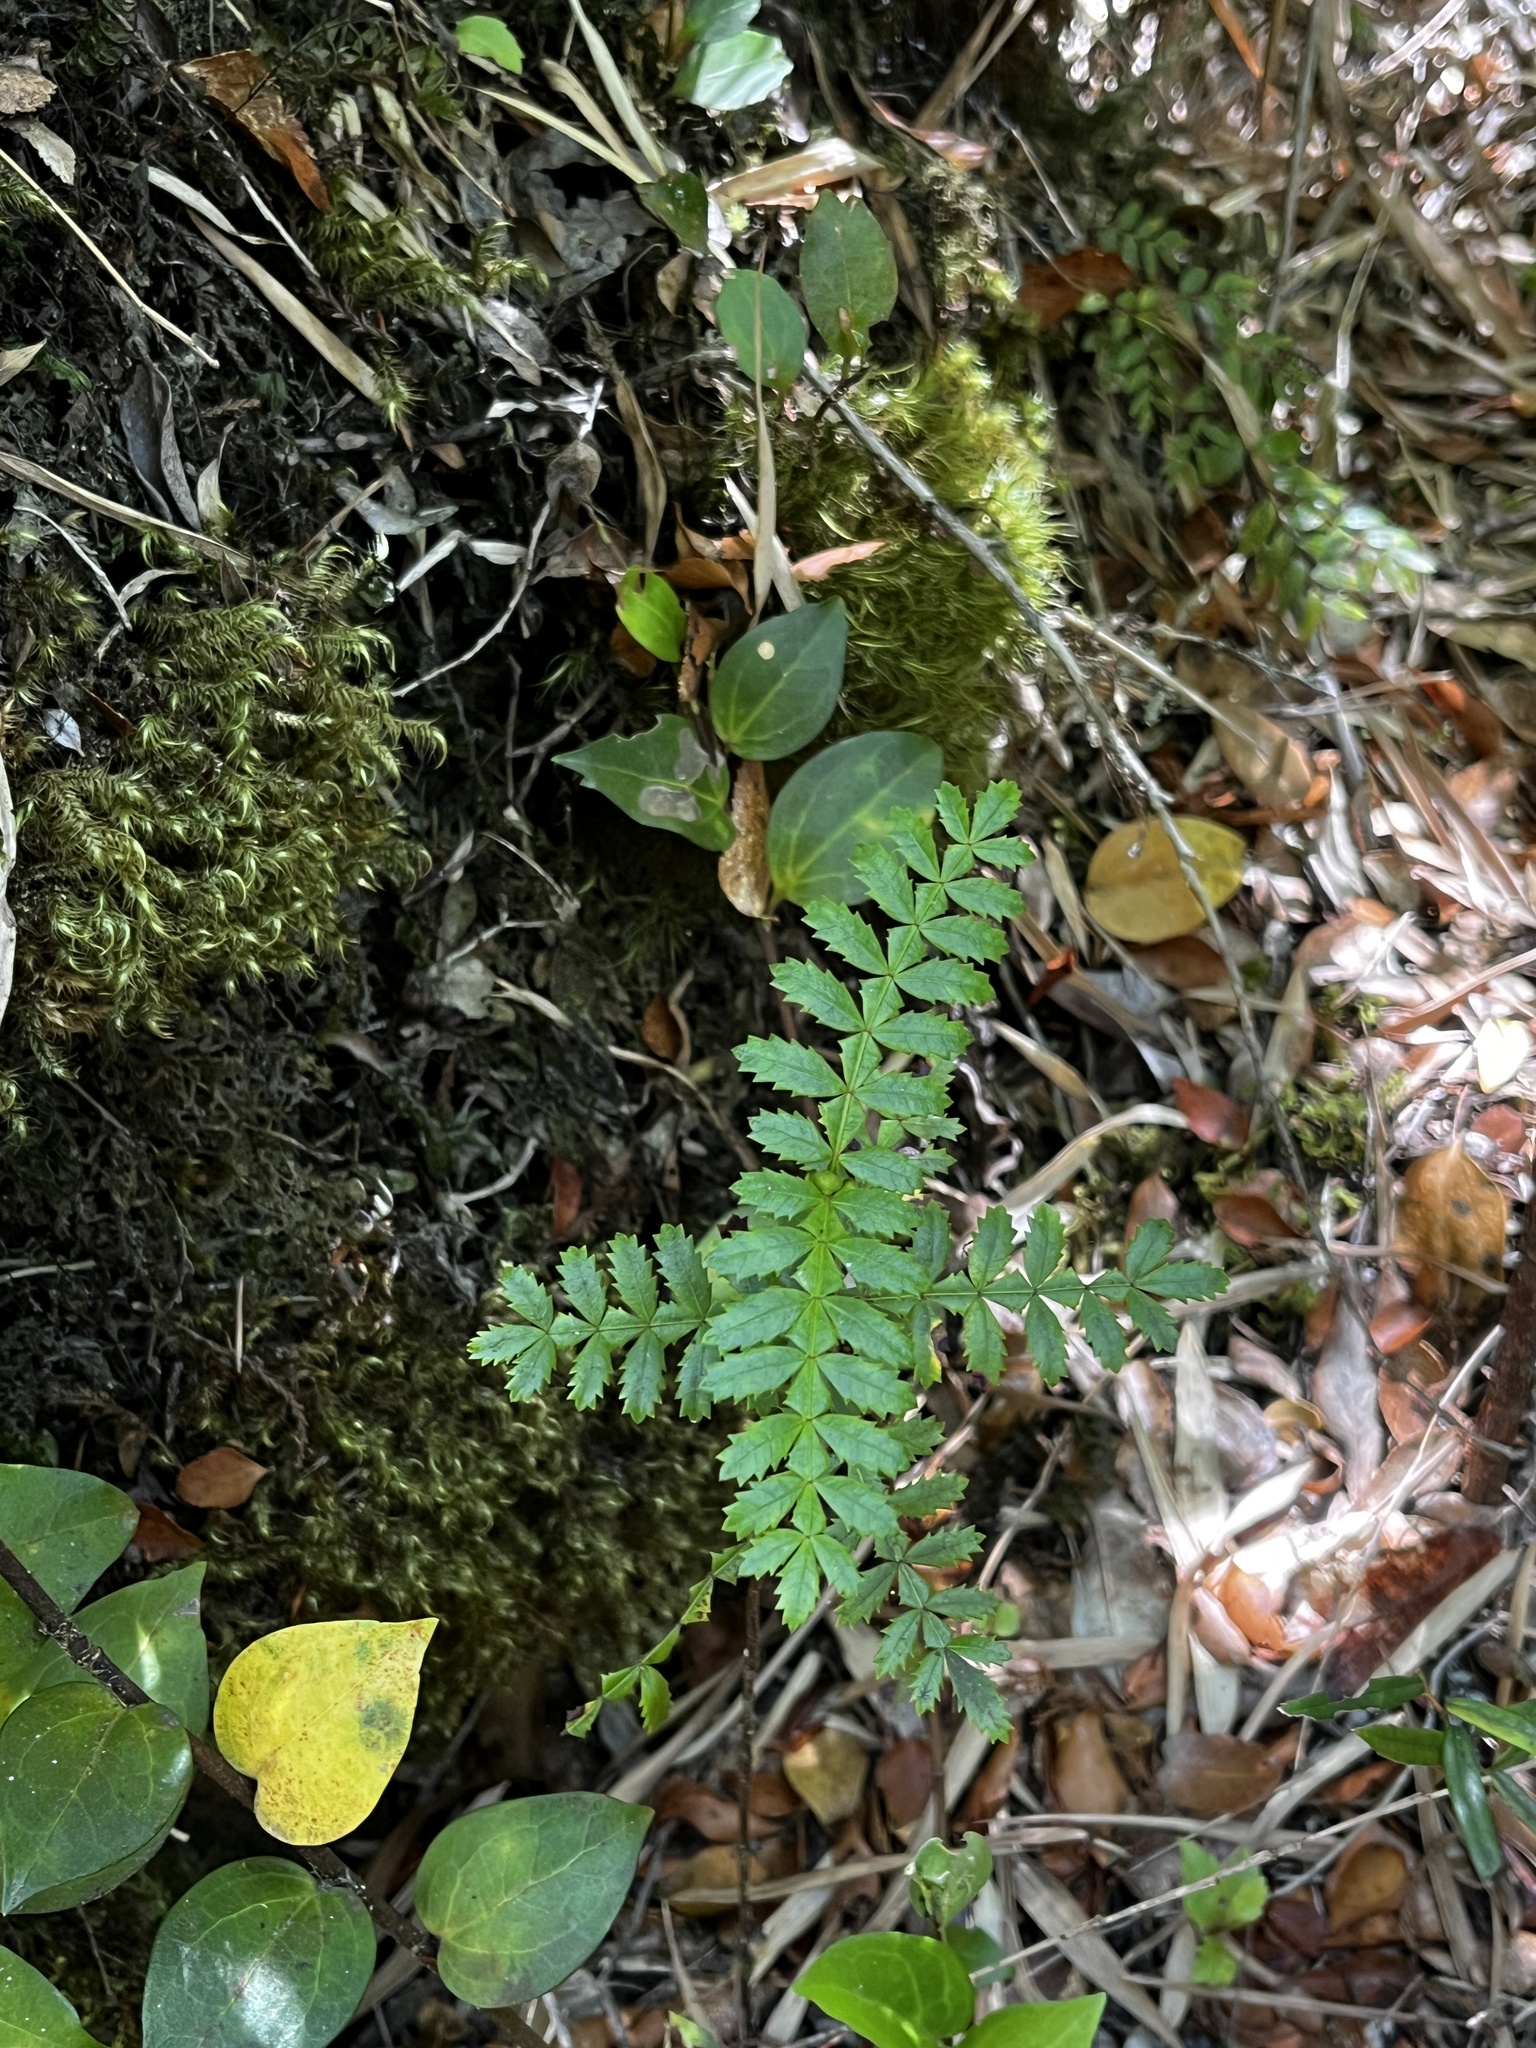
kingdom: Plantae
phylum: Tracheophyta
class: Magnoliopsida
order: Oxalidales
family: Cunoniaceae
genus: Weinmannia
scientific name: Weinmannia trichosperma
